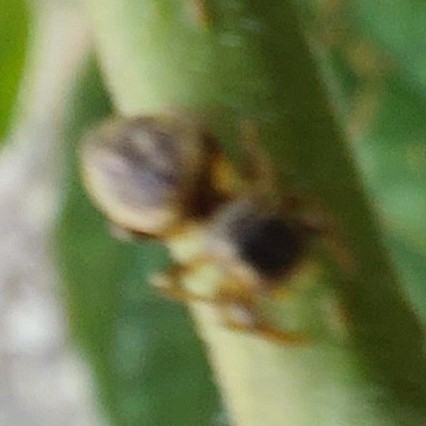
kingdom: Animalia
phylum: Arthropoda
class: Arachnida
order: Araneae
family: Salticidae
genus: Heliophanus
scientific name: Heliophanus hamifer
